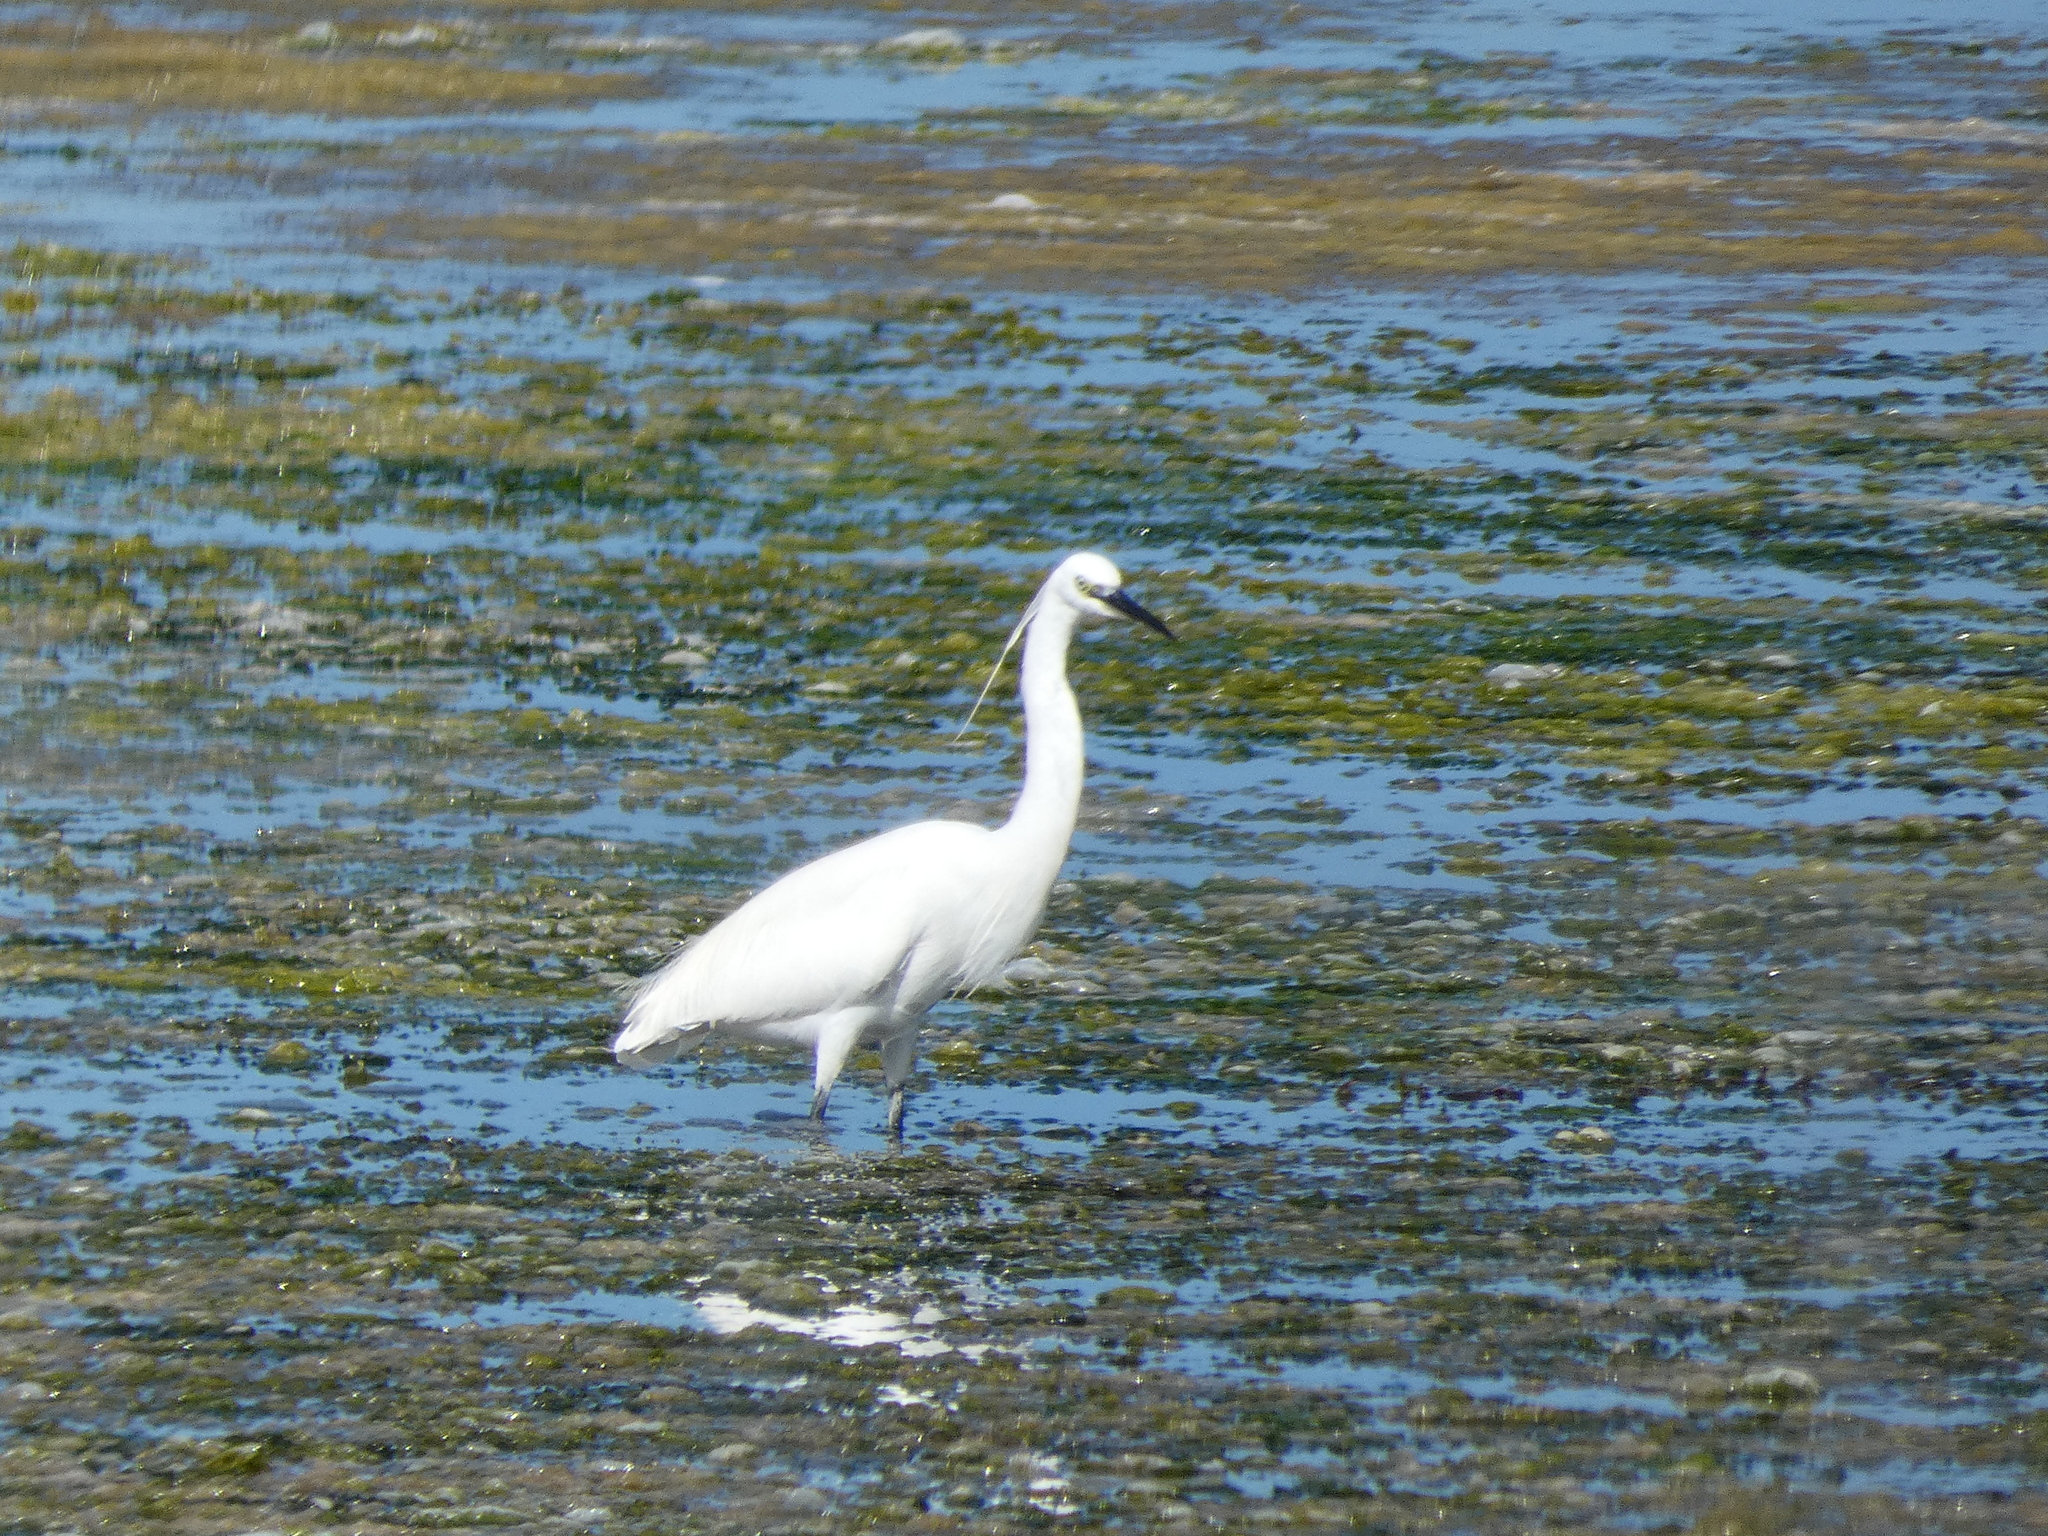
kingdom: Animalia
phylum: Chordata
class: Aves
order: Pelecaniformes
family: Ardeidae
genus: Egretta
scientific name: Egretta garzetta
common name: Little egret
